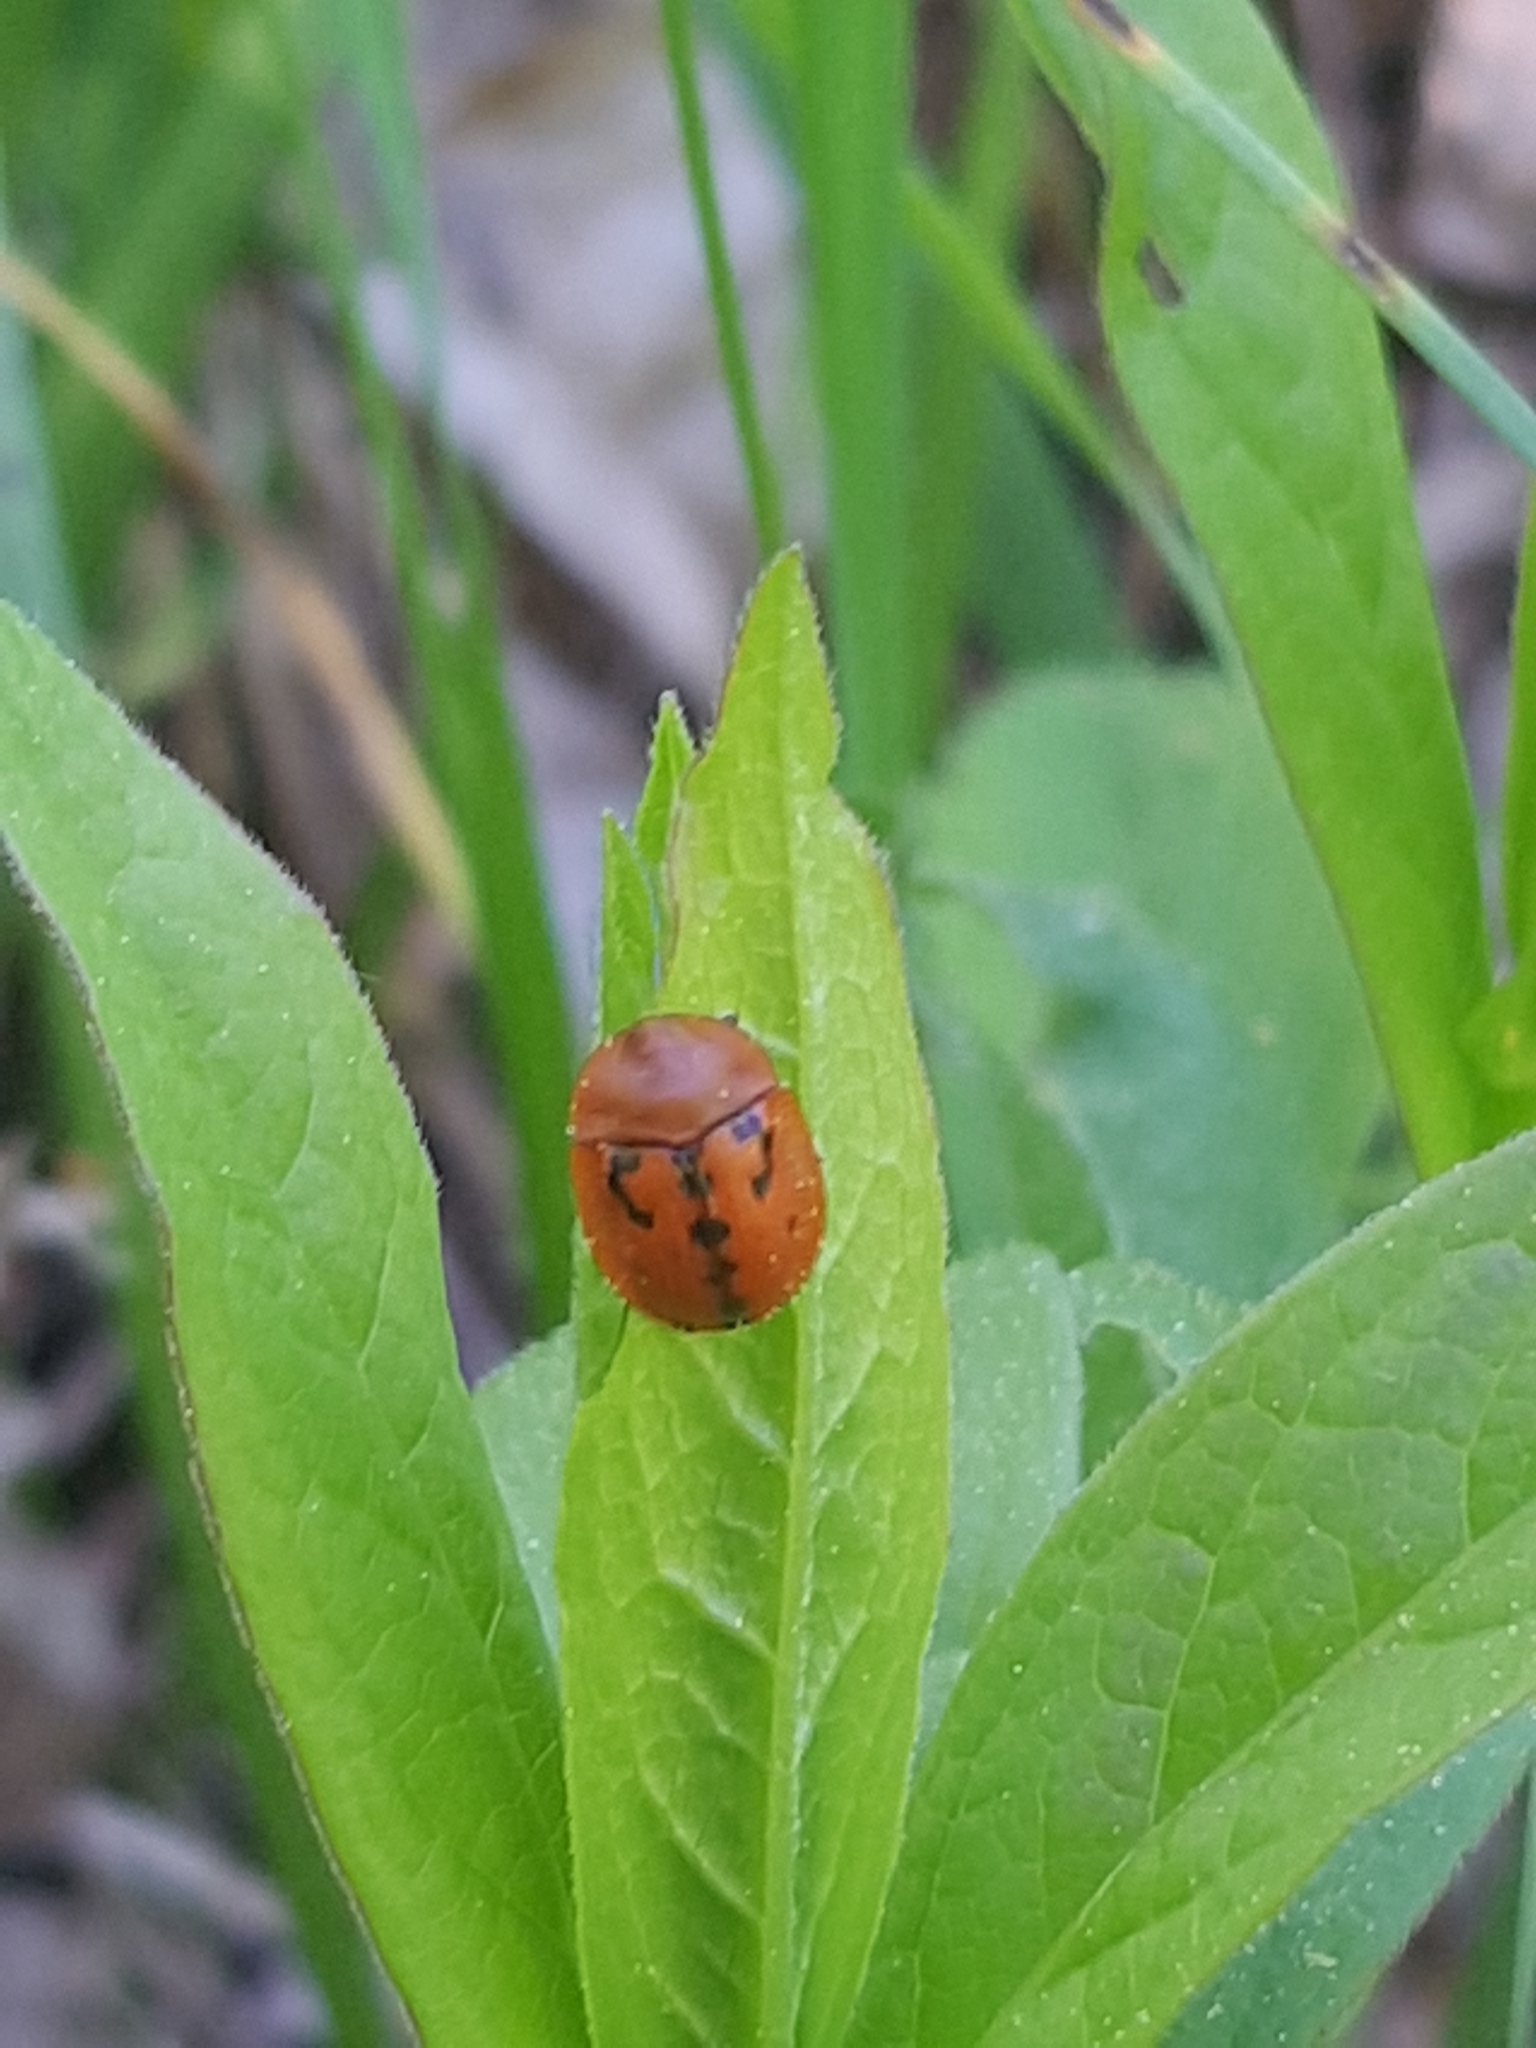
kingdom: Animalia
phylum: Arthropoda
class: Insecta
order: Coleoptera
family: Chrysomelidae
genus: Cassida
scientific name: Cassida murraea
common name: Fleabane tortoise beetle
